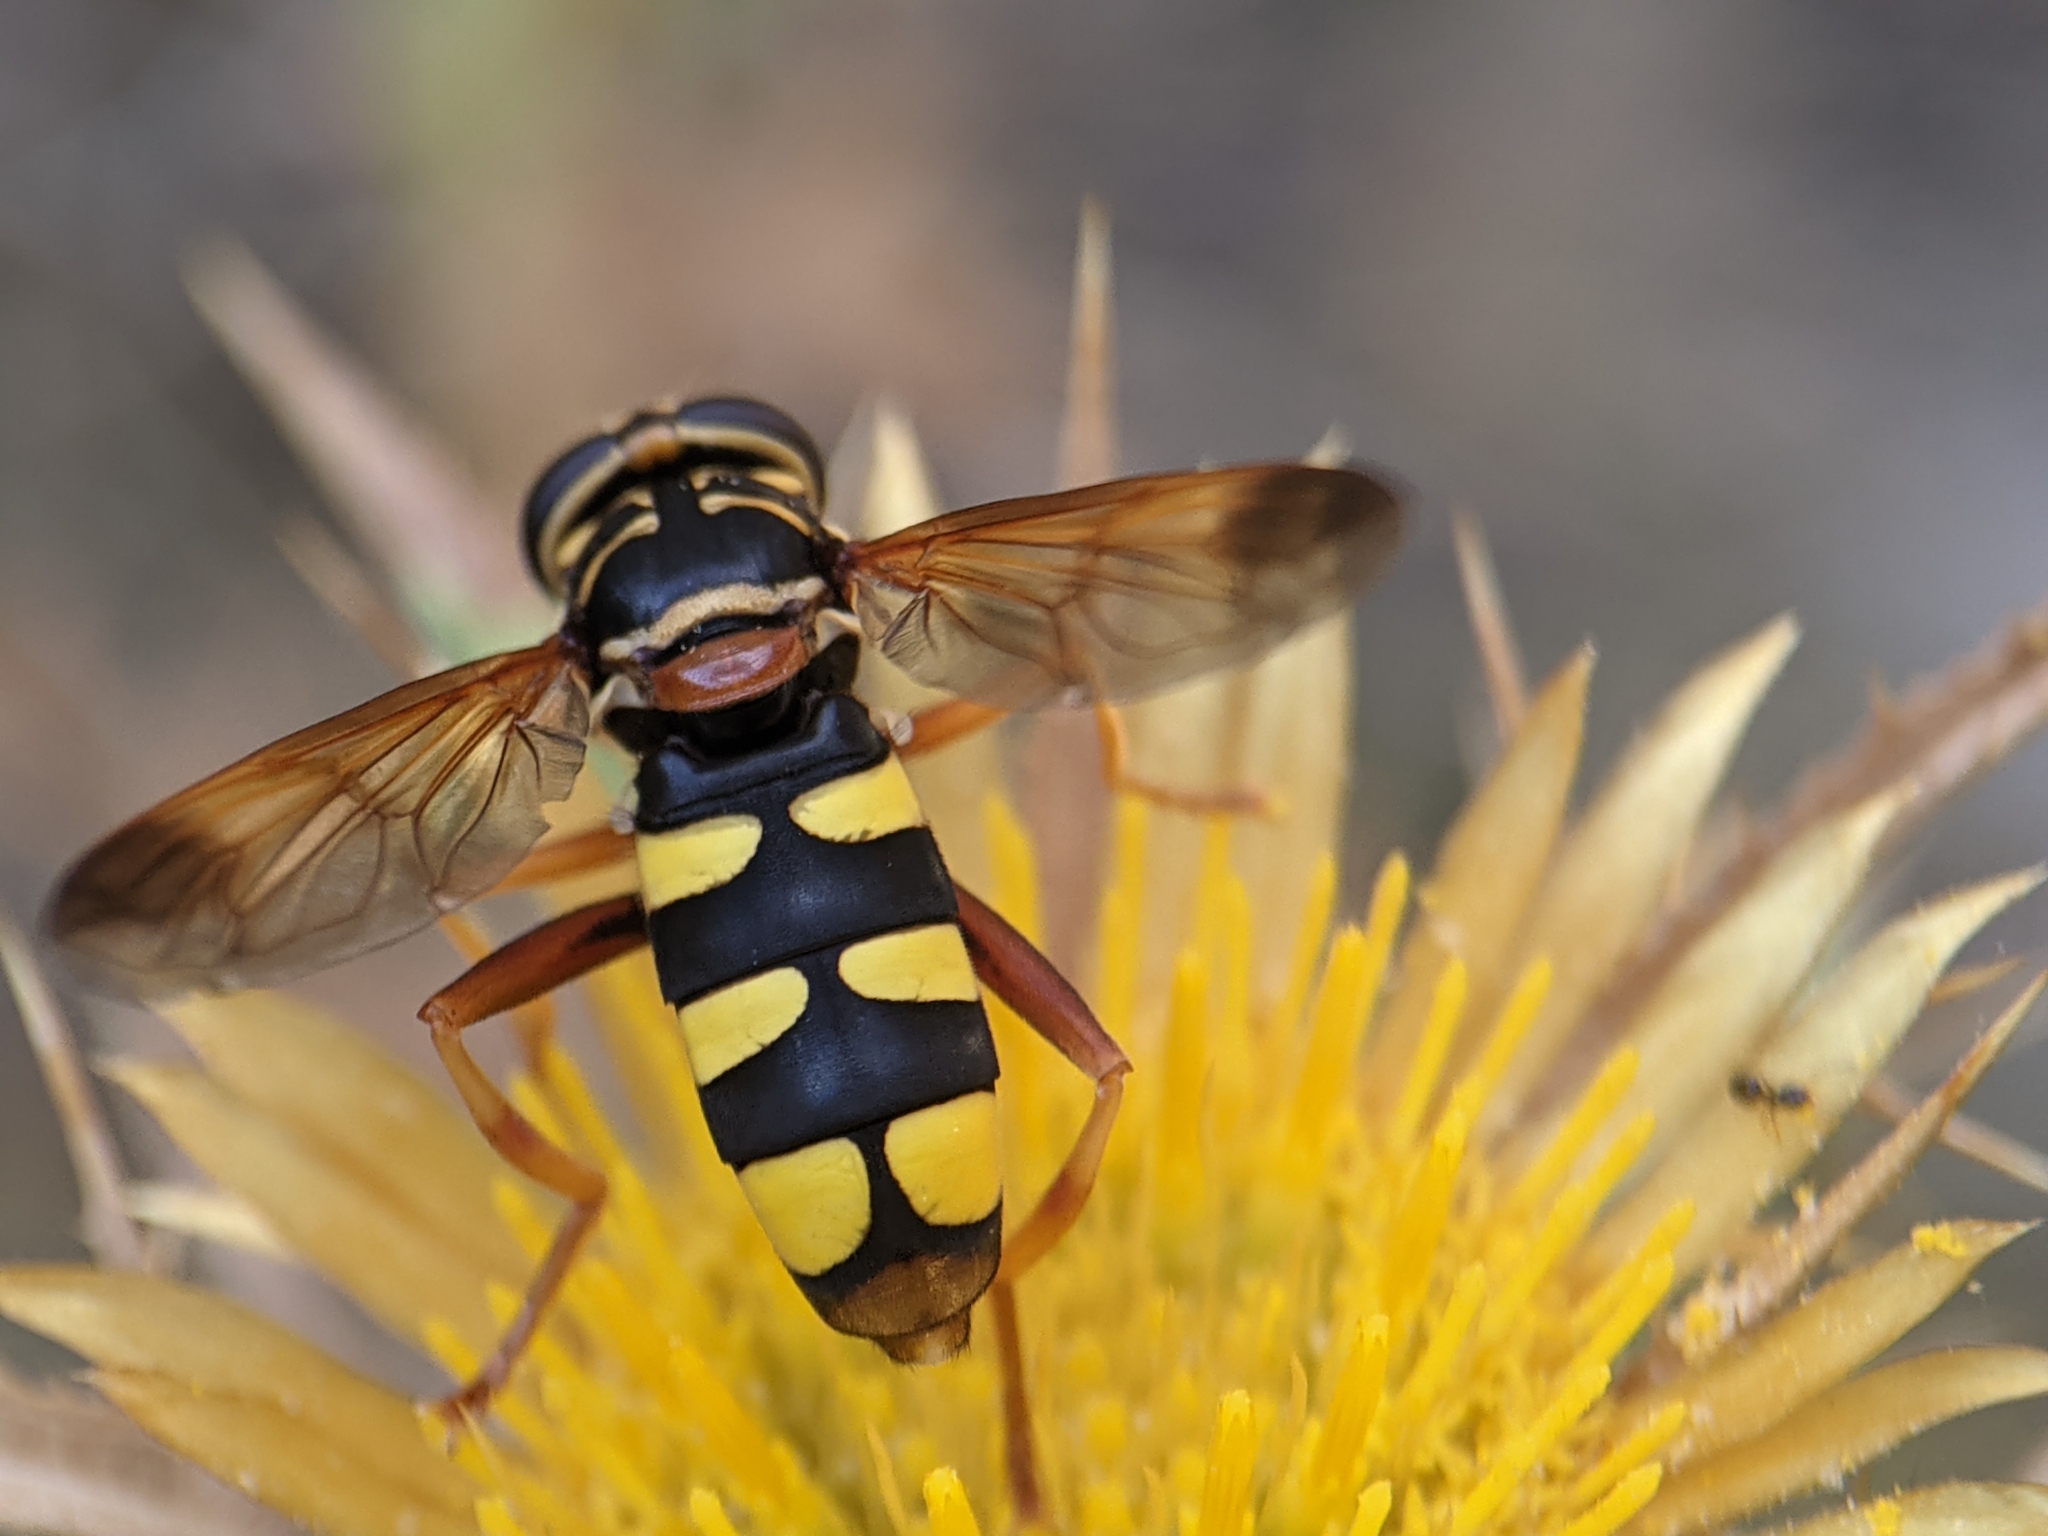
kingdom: Animalia
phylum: Arthropoda
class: Insecta
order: Diptera
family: Syrphidae
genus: Milesia
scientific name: Milesia semiluctifera
